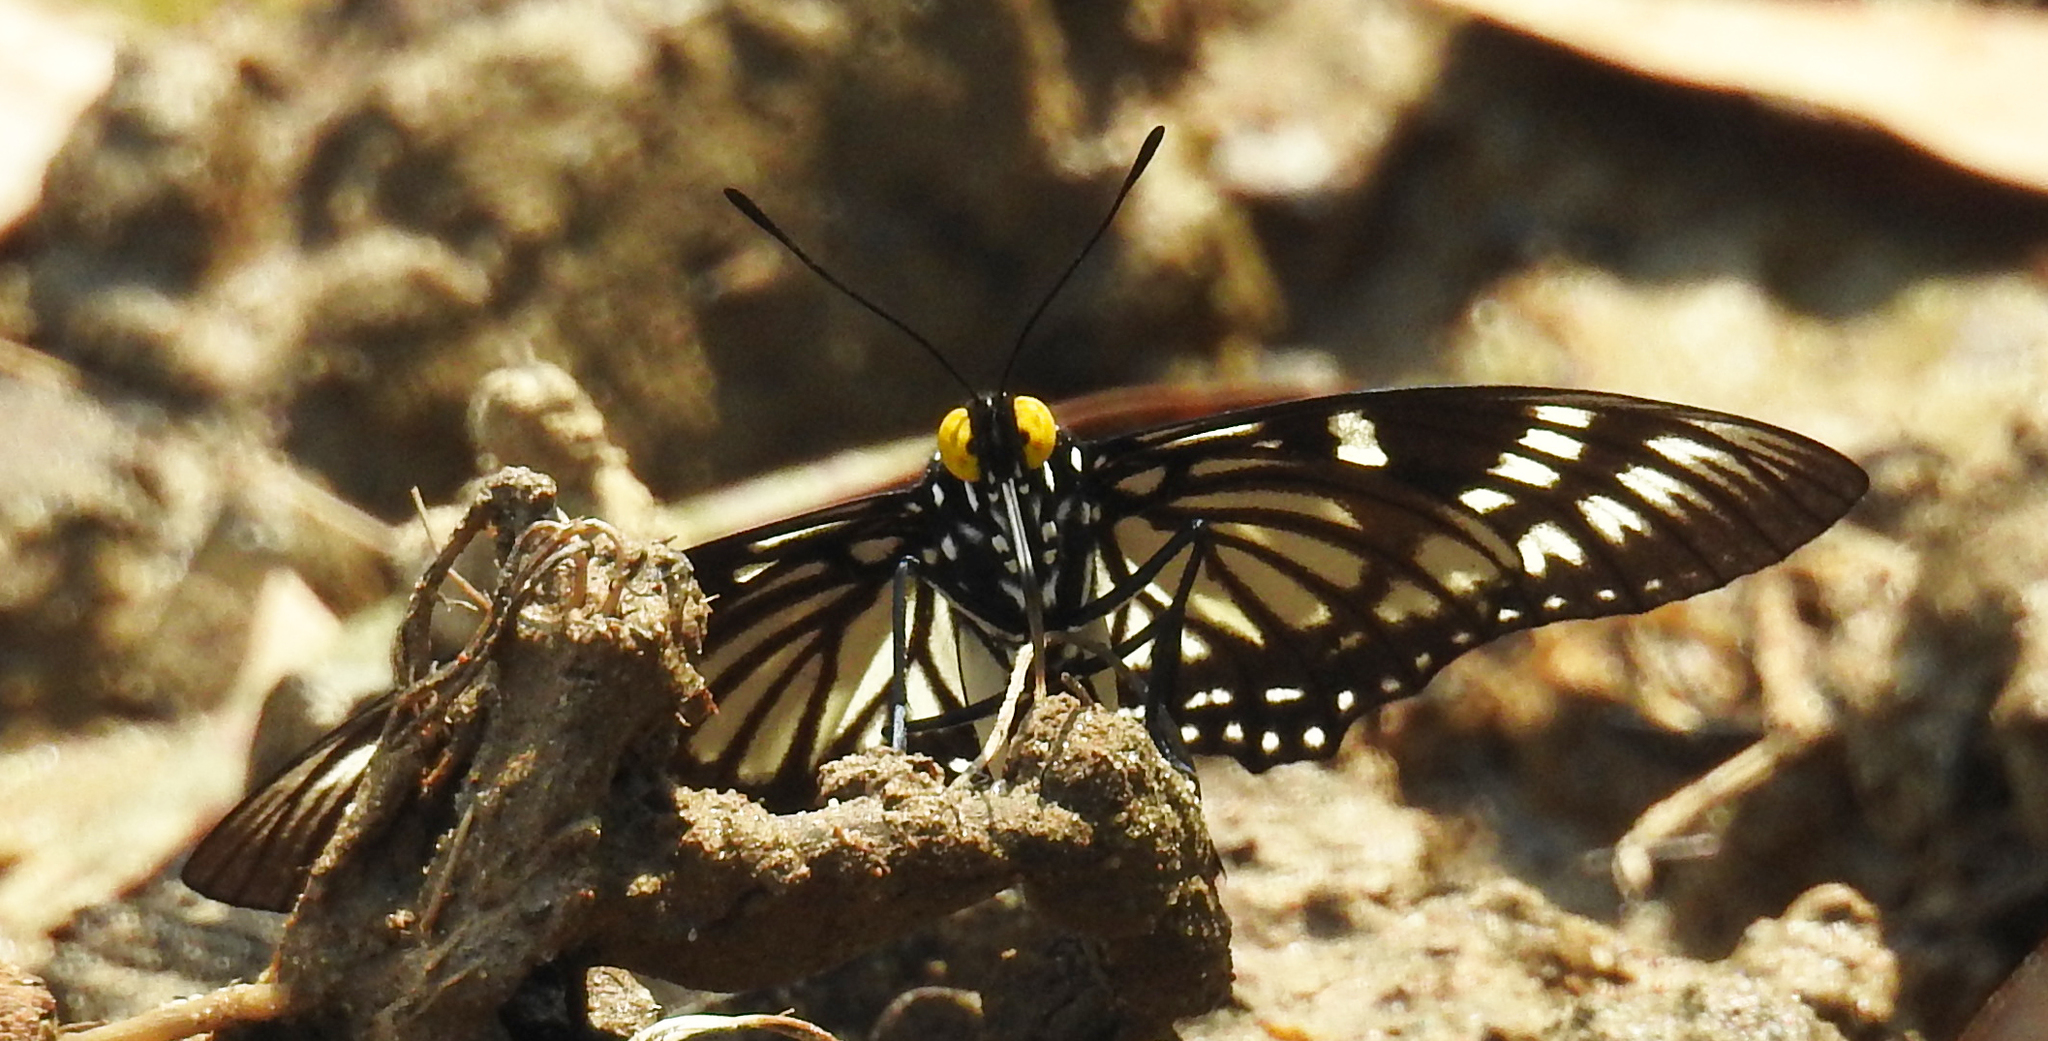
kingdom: Animalia
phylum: Arthropoda
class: Insecta
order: Lepidoptera
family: Nymphalidae
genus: Euripus
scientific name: Euripus nyctelius
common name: Courtesan
